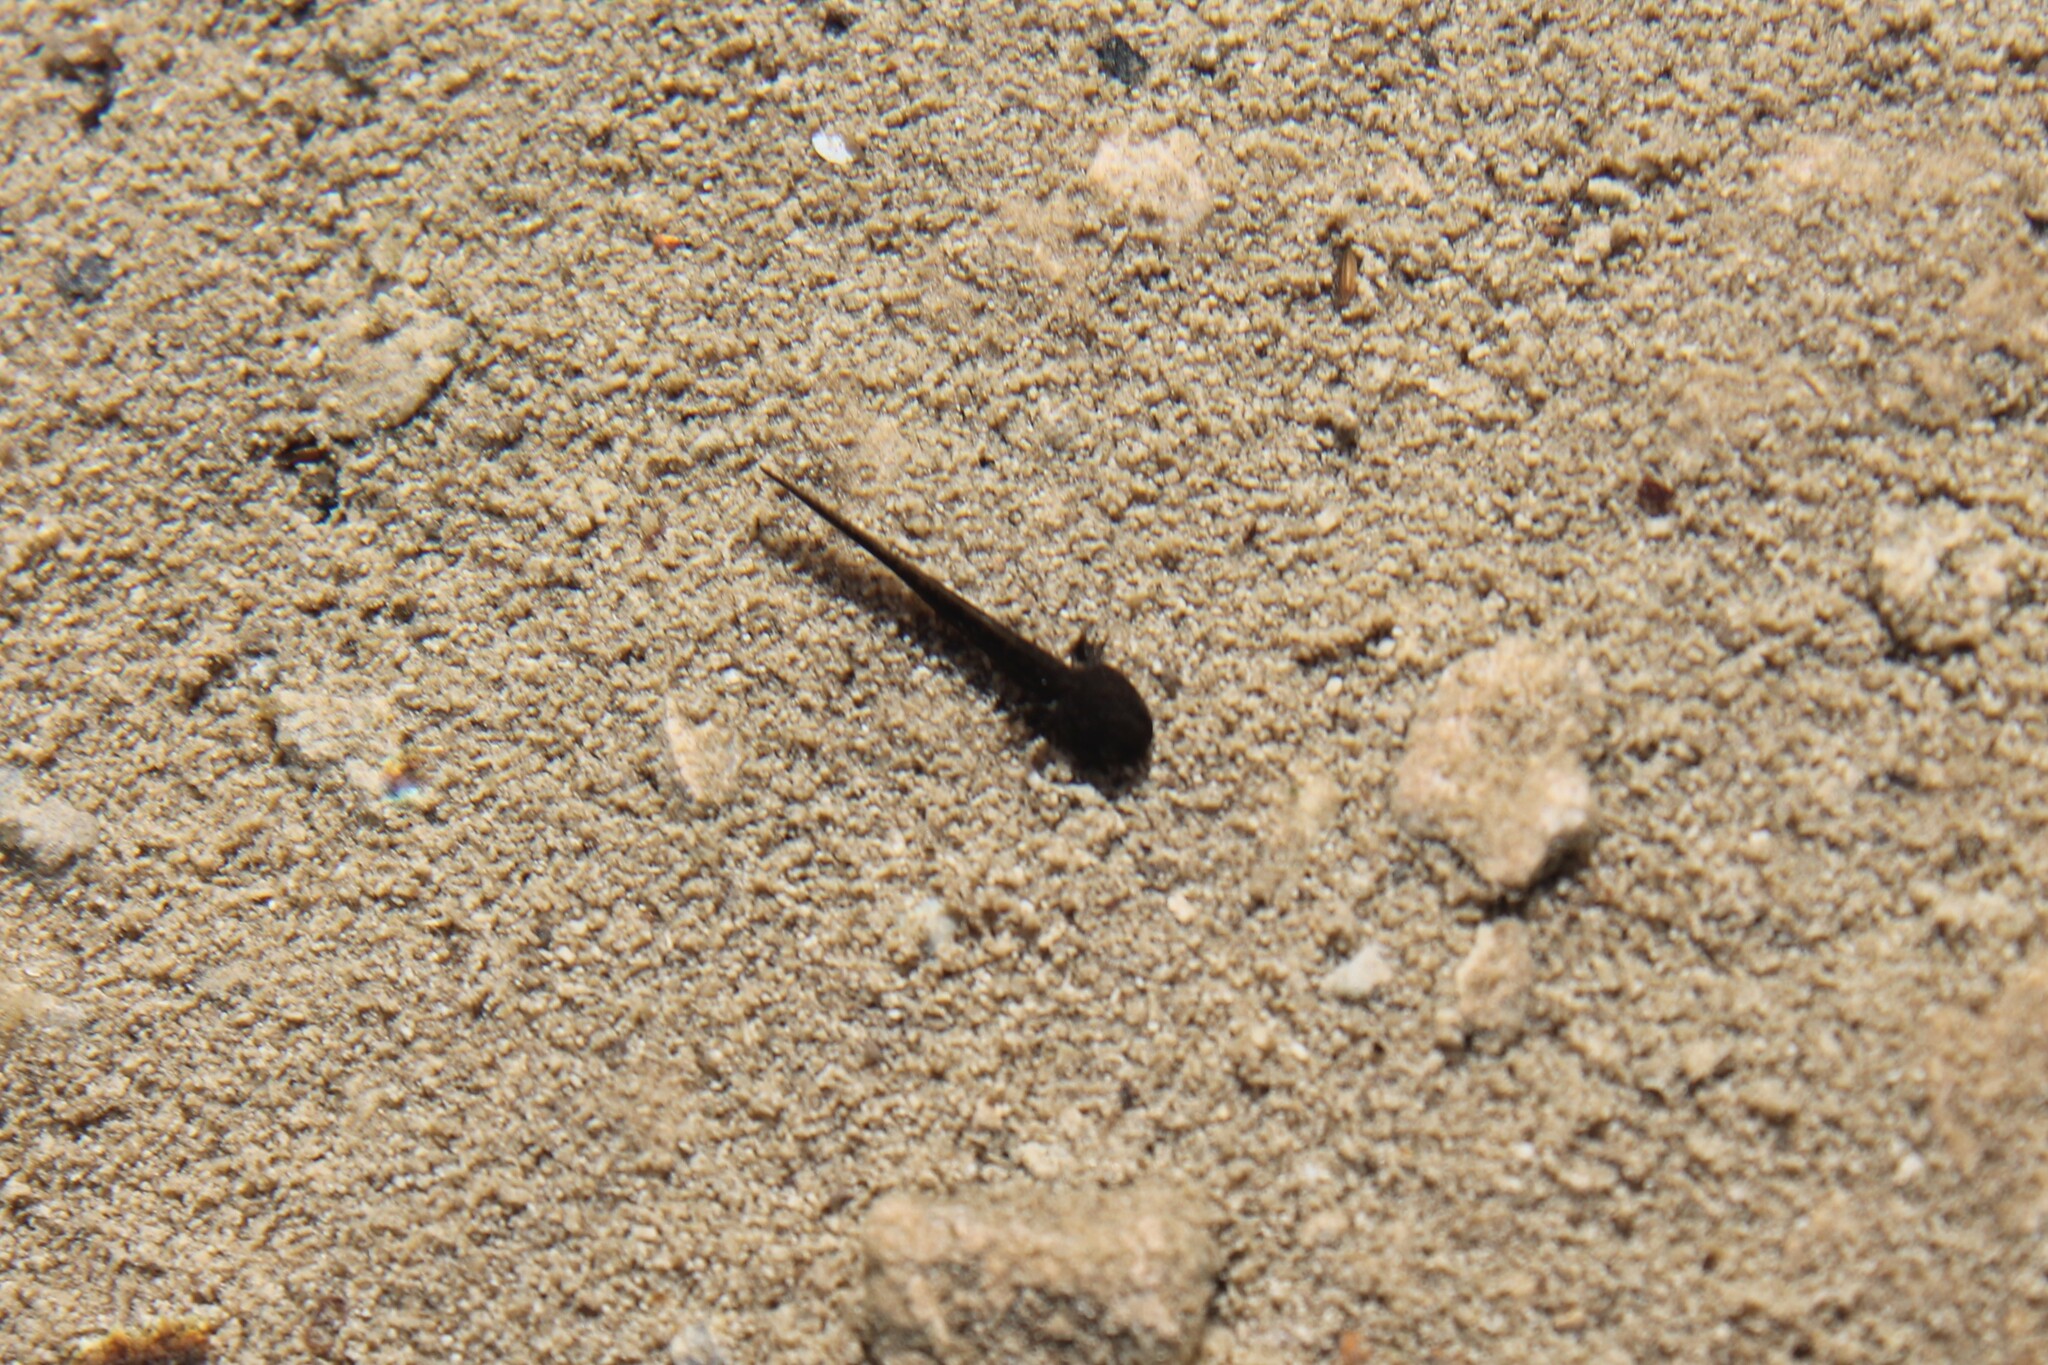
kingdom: Animalia
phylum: Chordata
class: Amphibia
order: Caudata
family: Ambystomatidae
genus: Ambystoma
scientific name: Ambystoma barbouri
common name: Streamside salamander
